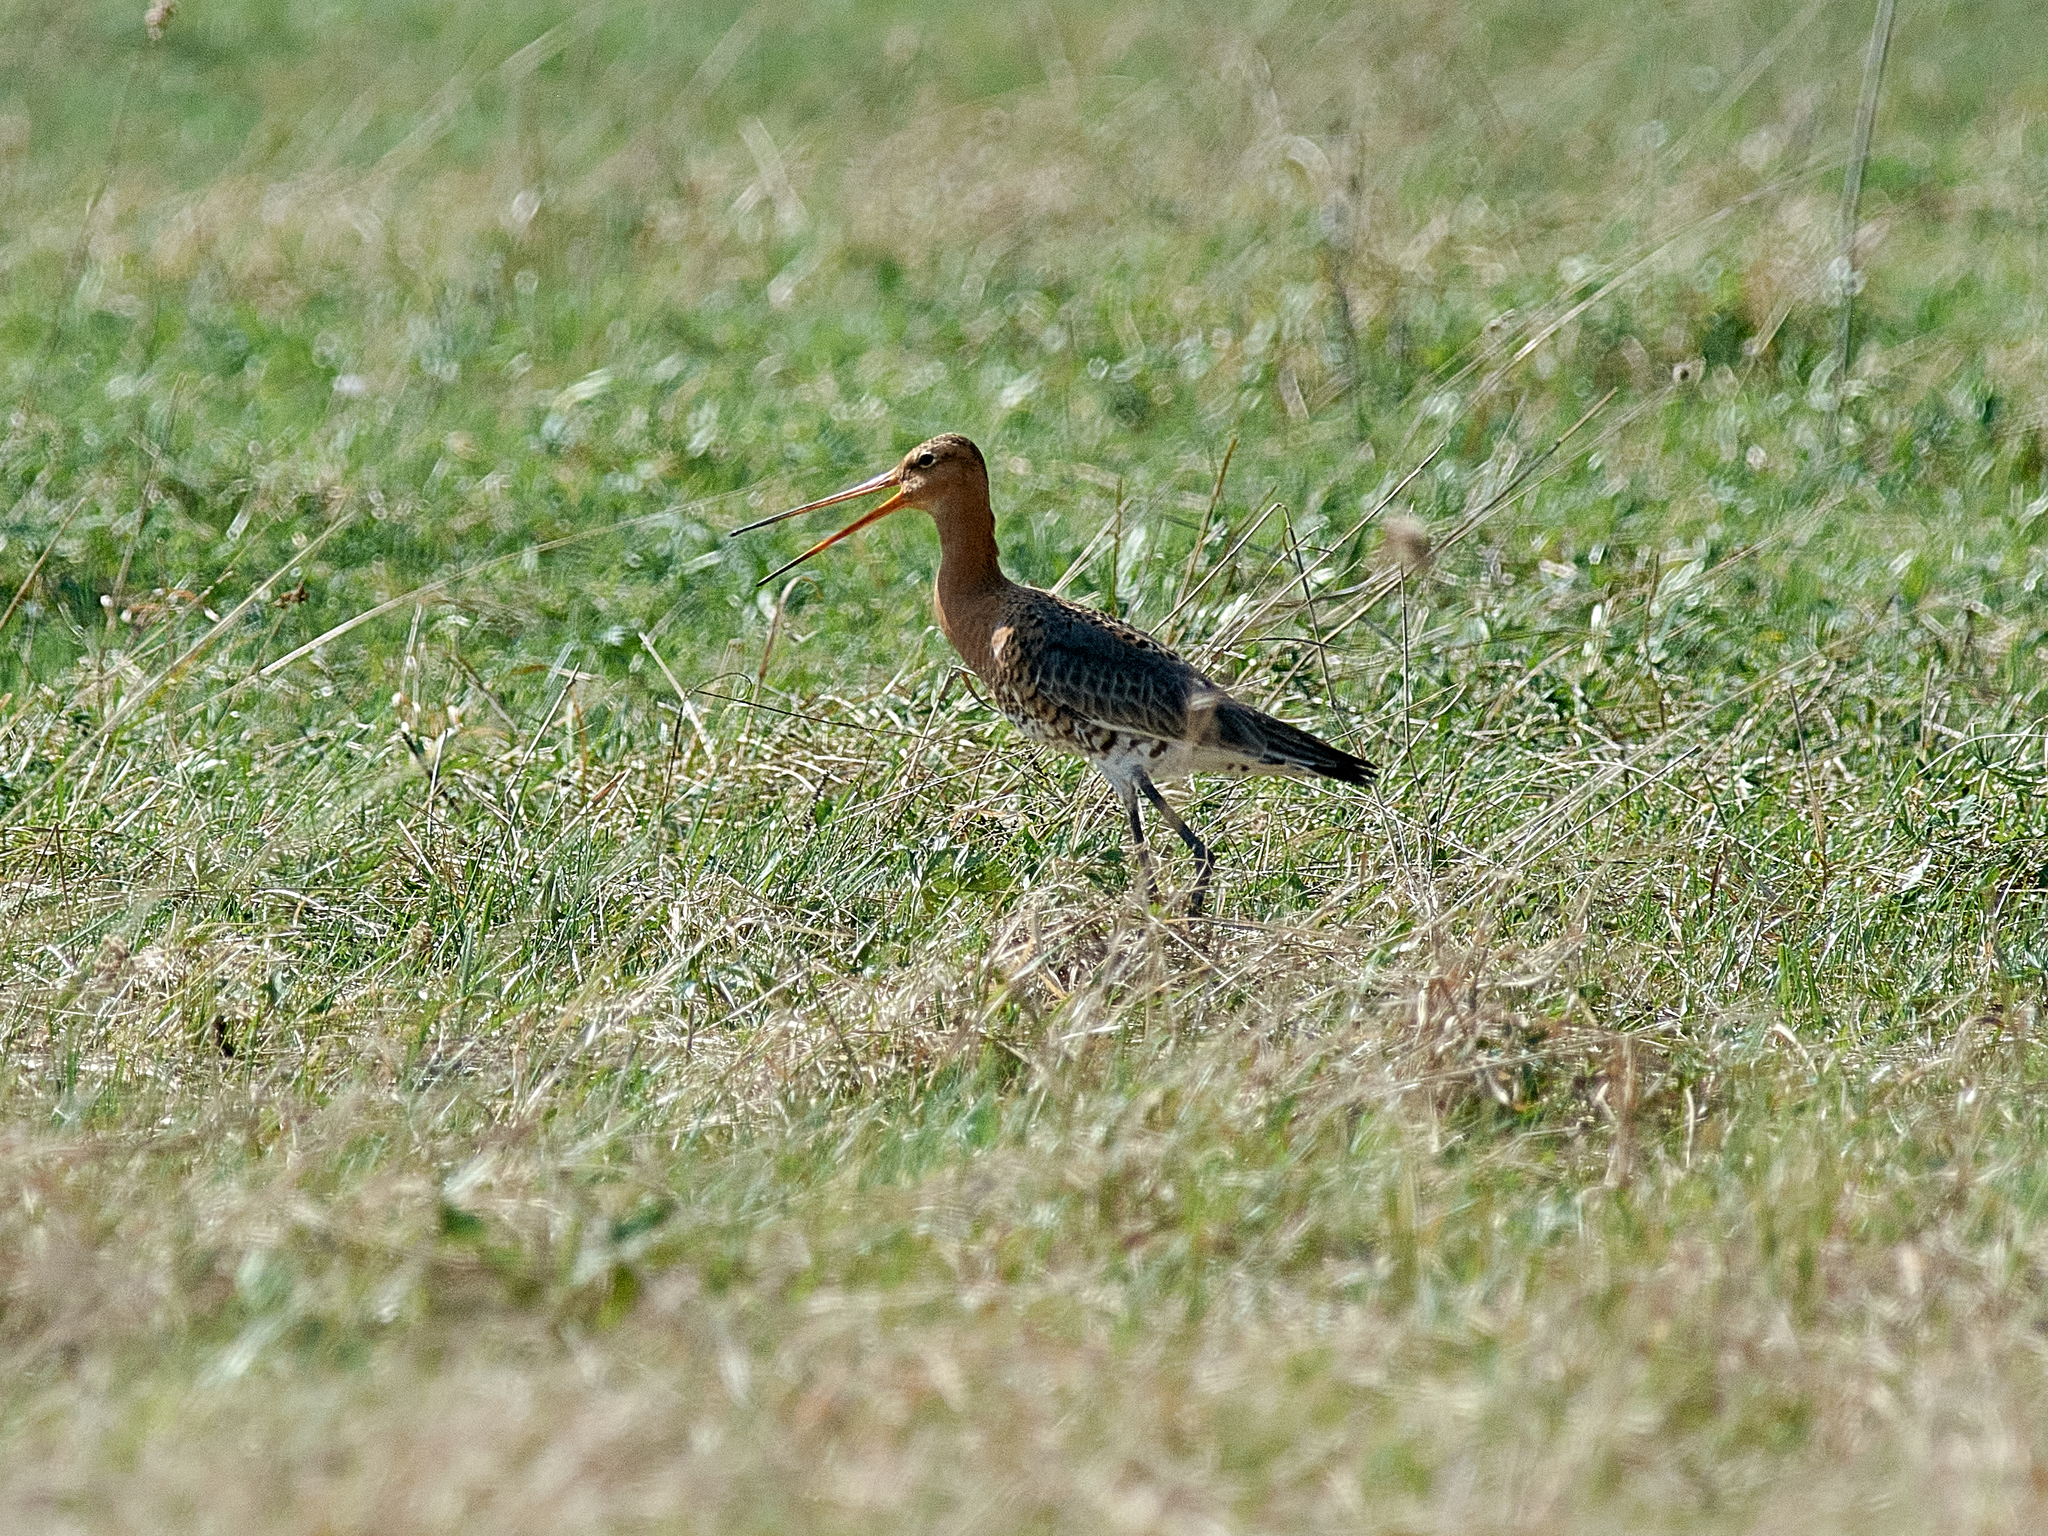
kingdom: Animalia
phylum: Chordata
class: Aves
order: Charadriiformes
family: Scolopacidae
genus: Limosa
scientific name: Limosa limosa
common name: Black-tailed godwit
